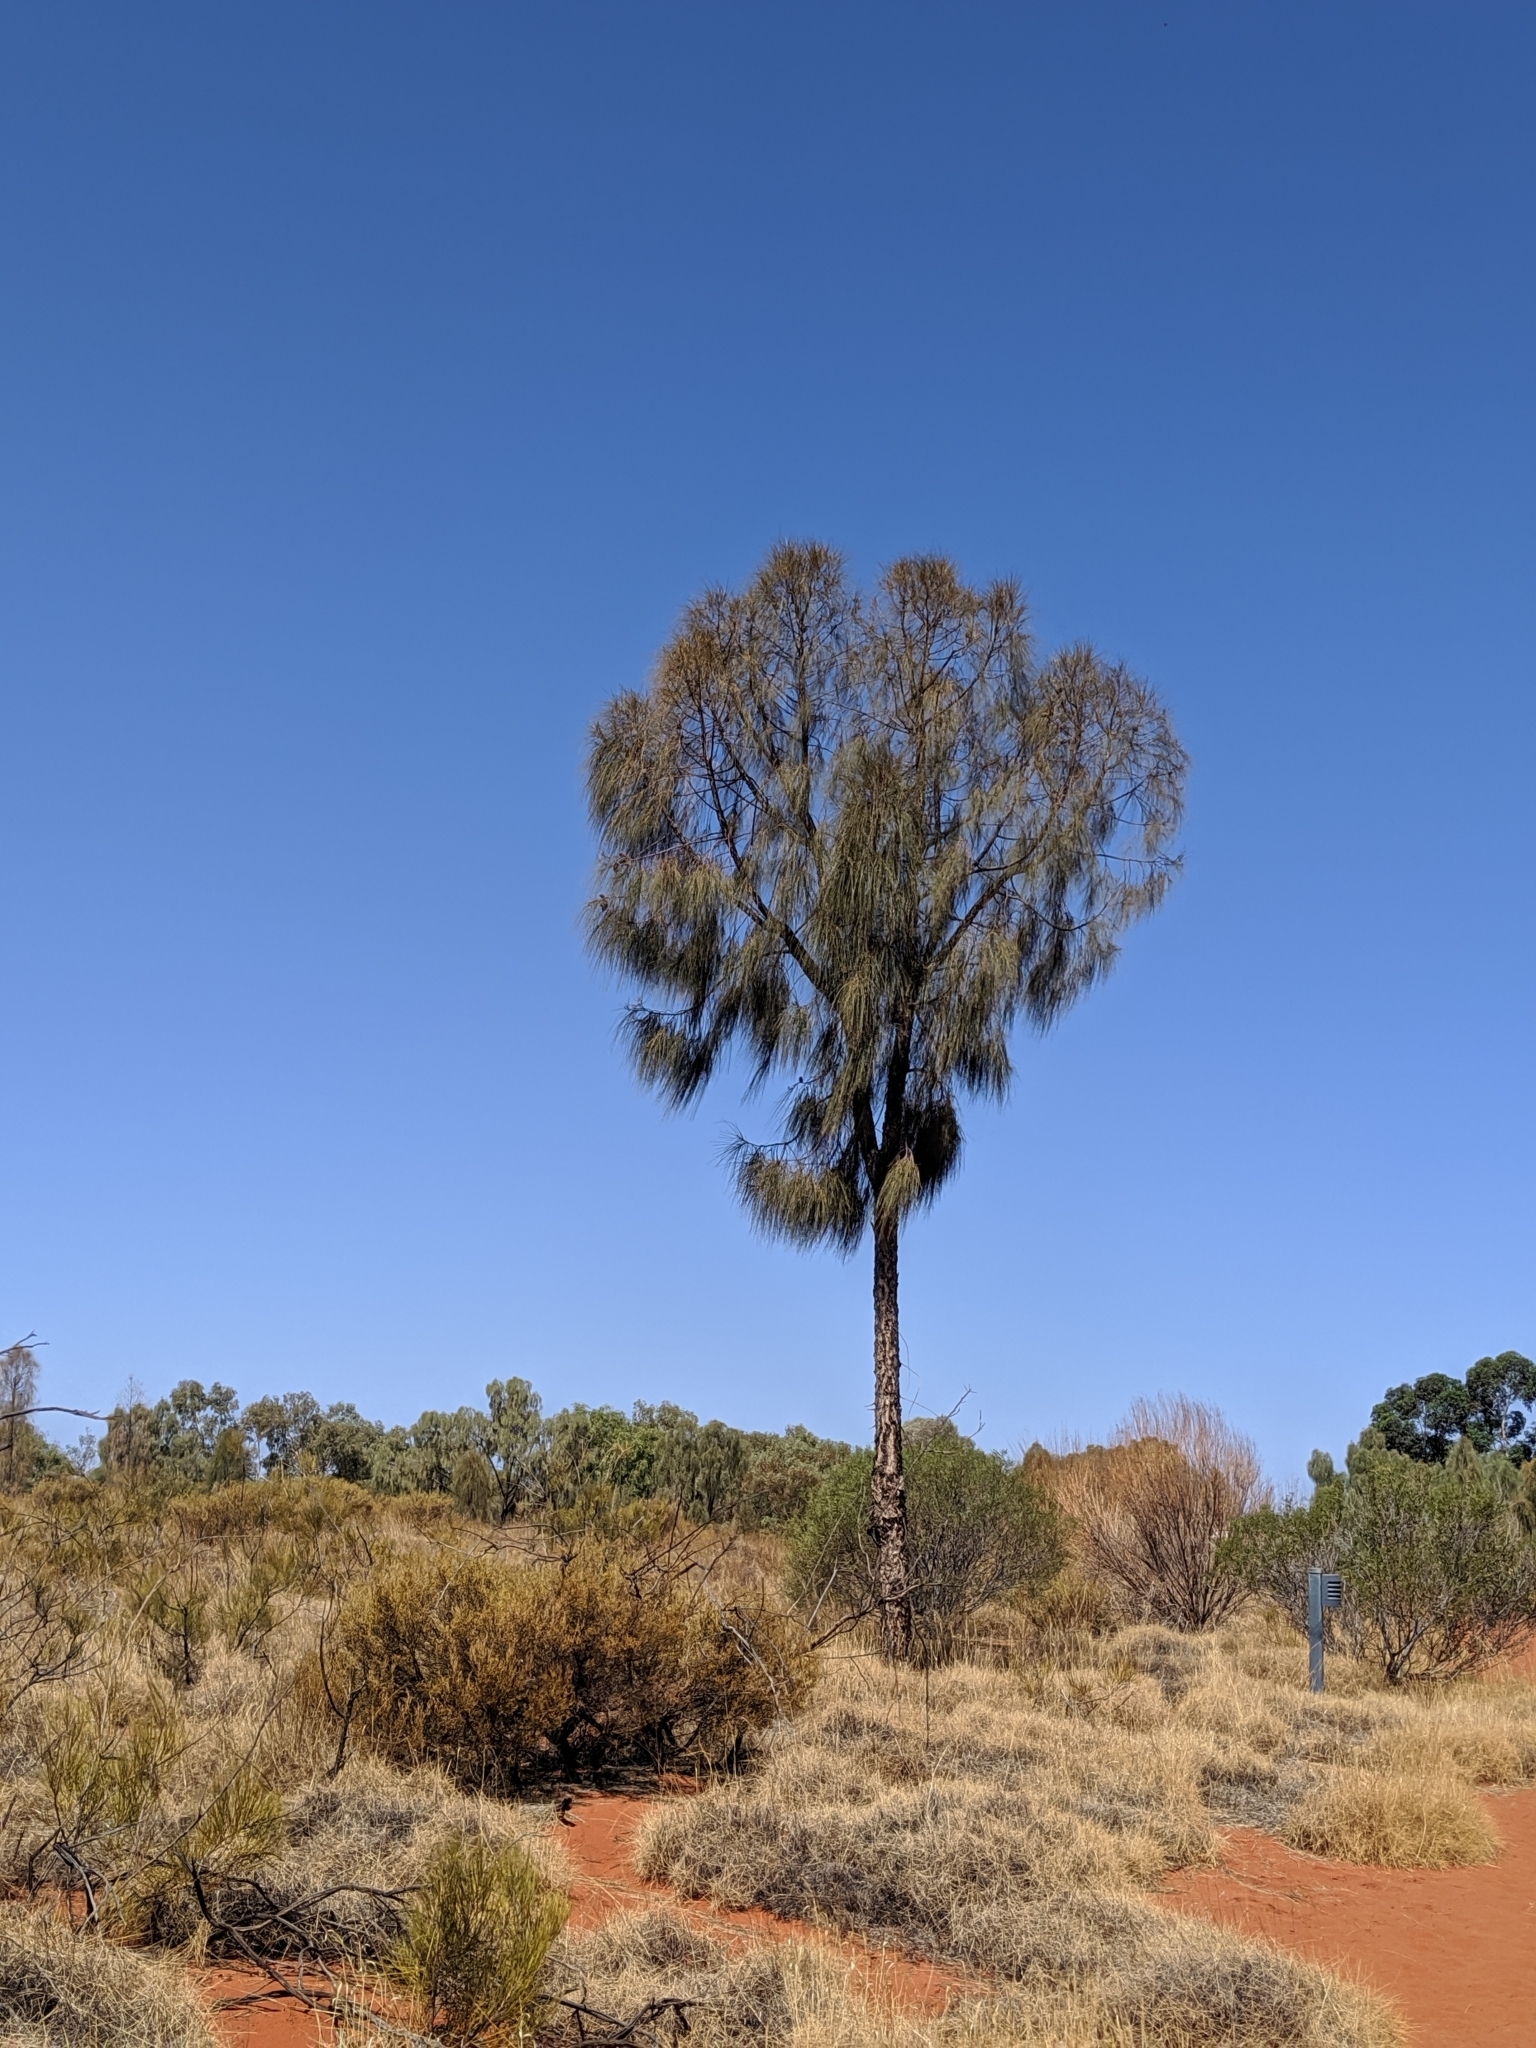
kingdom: Plantae
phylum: Tracheophyta
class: Magnoliopsida
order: Fagales
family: Casuarinaceae
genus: Allocasuarina
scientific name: Allocasuarina decaisneana
